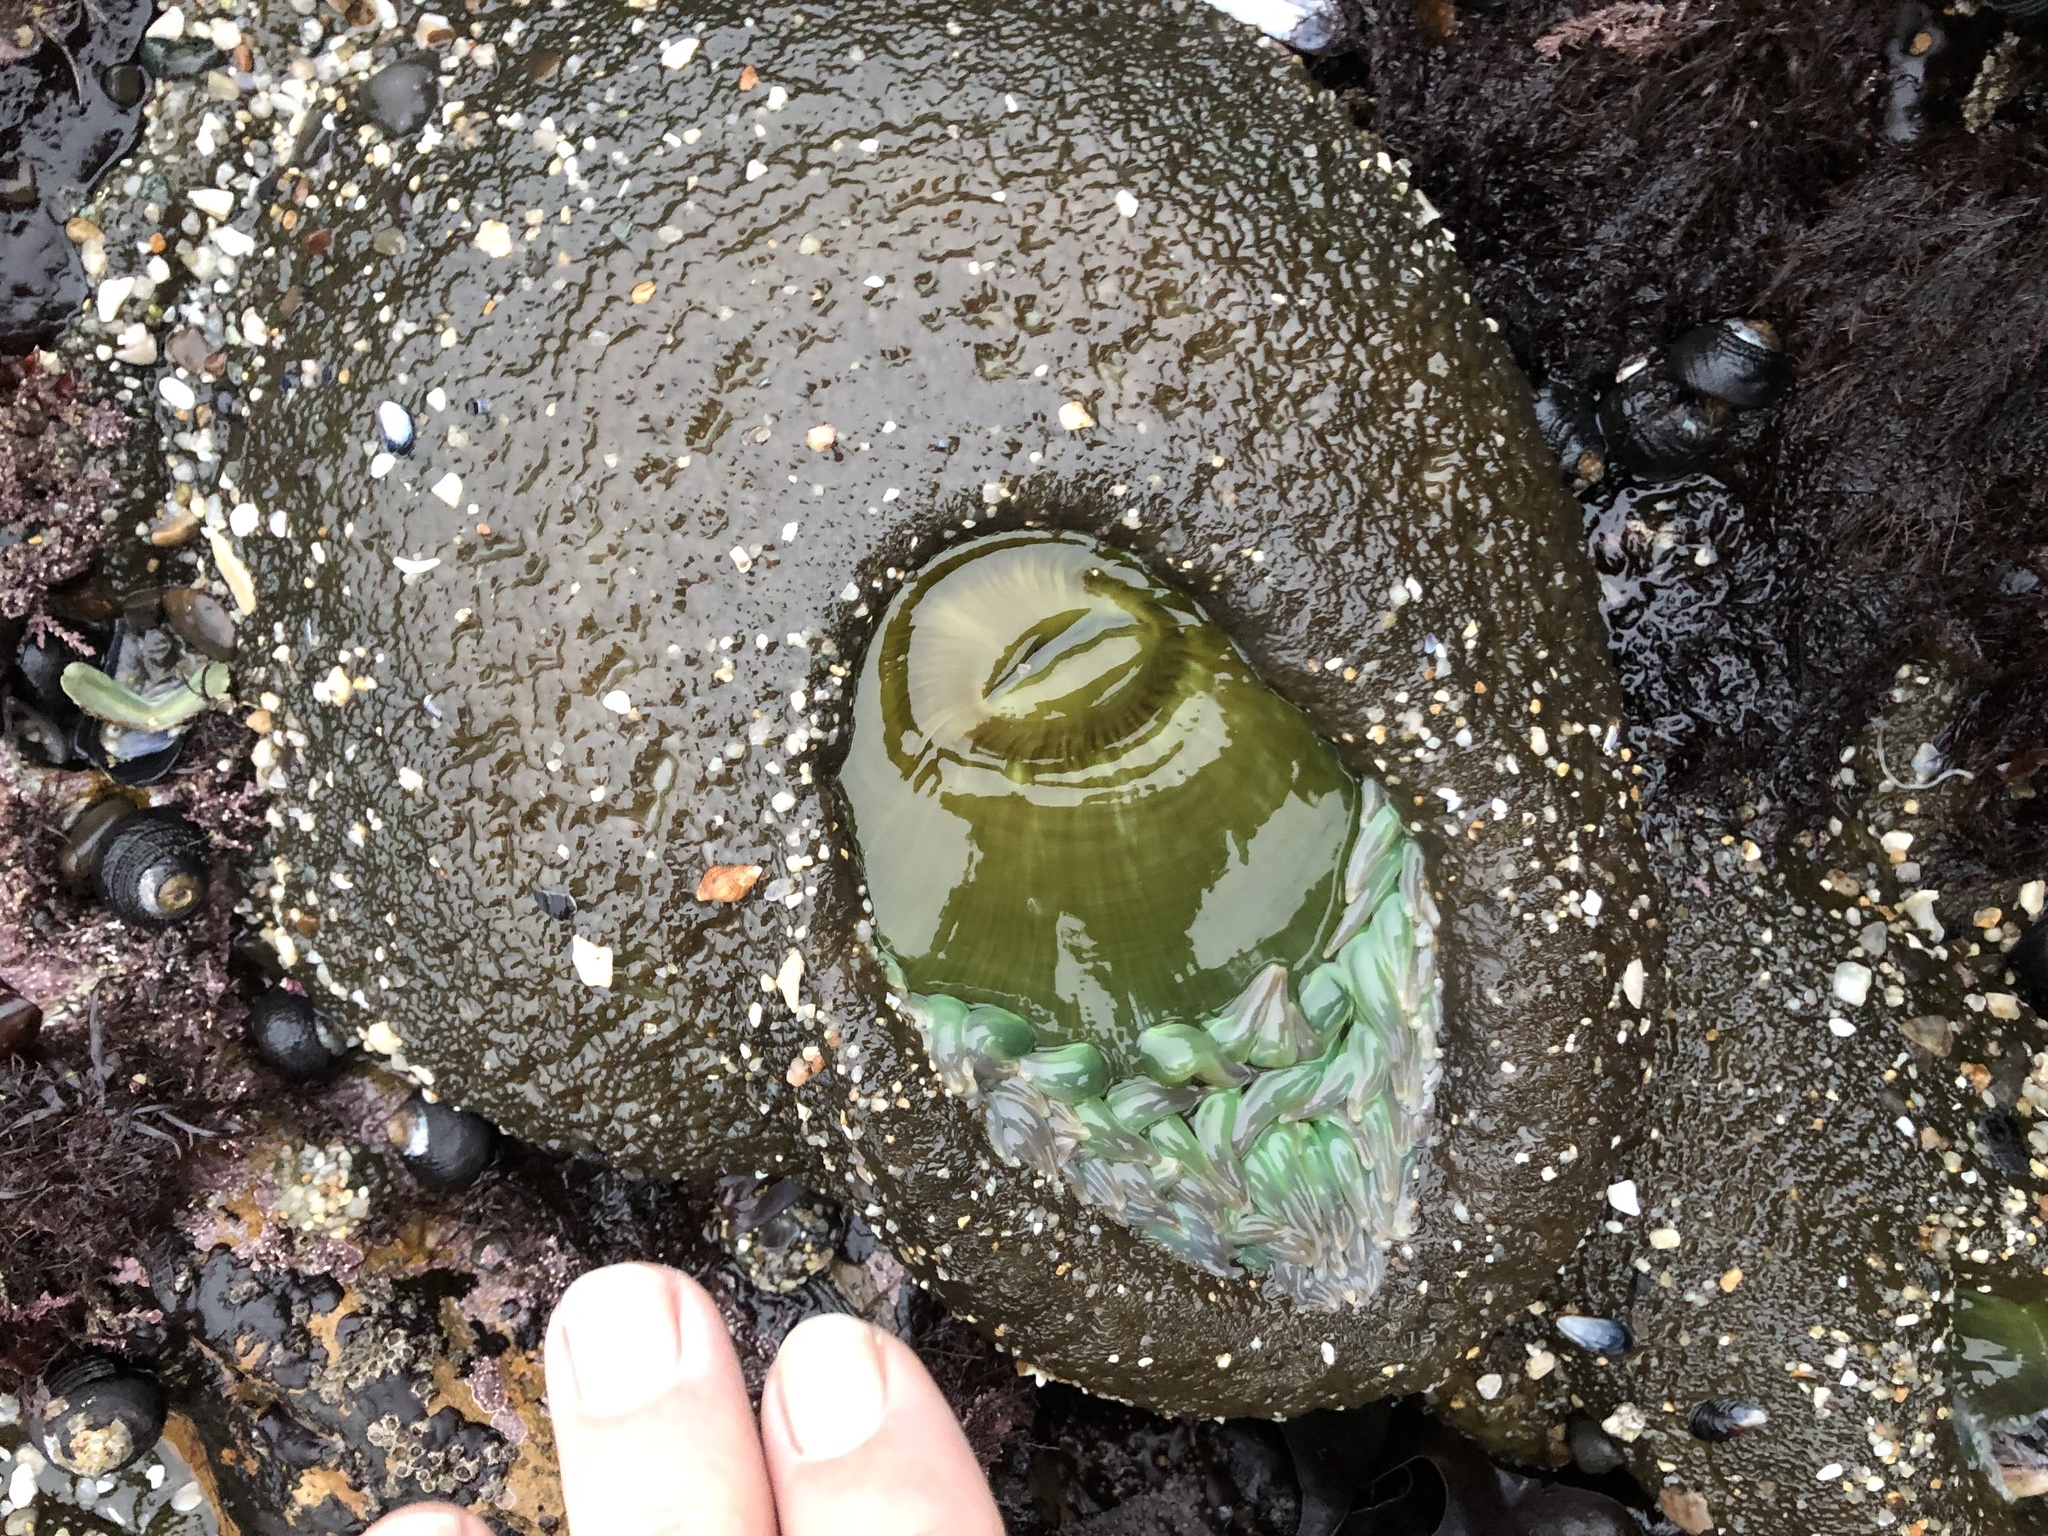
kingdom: Animalia
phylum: Cnidaria
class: Anthozoa
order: Actiniaria
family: Actiniidae
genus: Anthopleura
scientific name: Anthopleura xanthogrammica
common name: Giant green anemone
